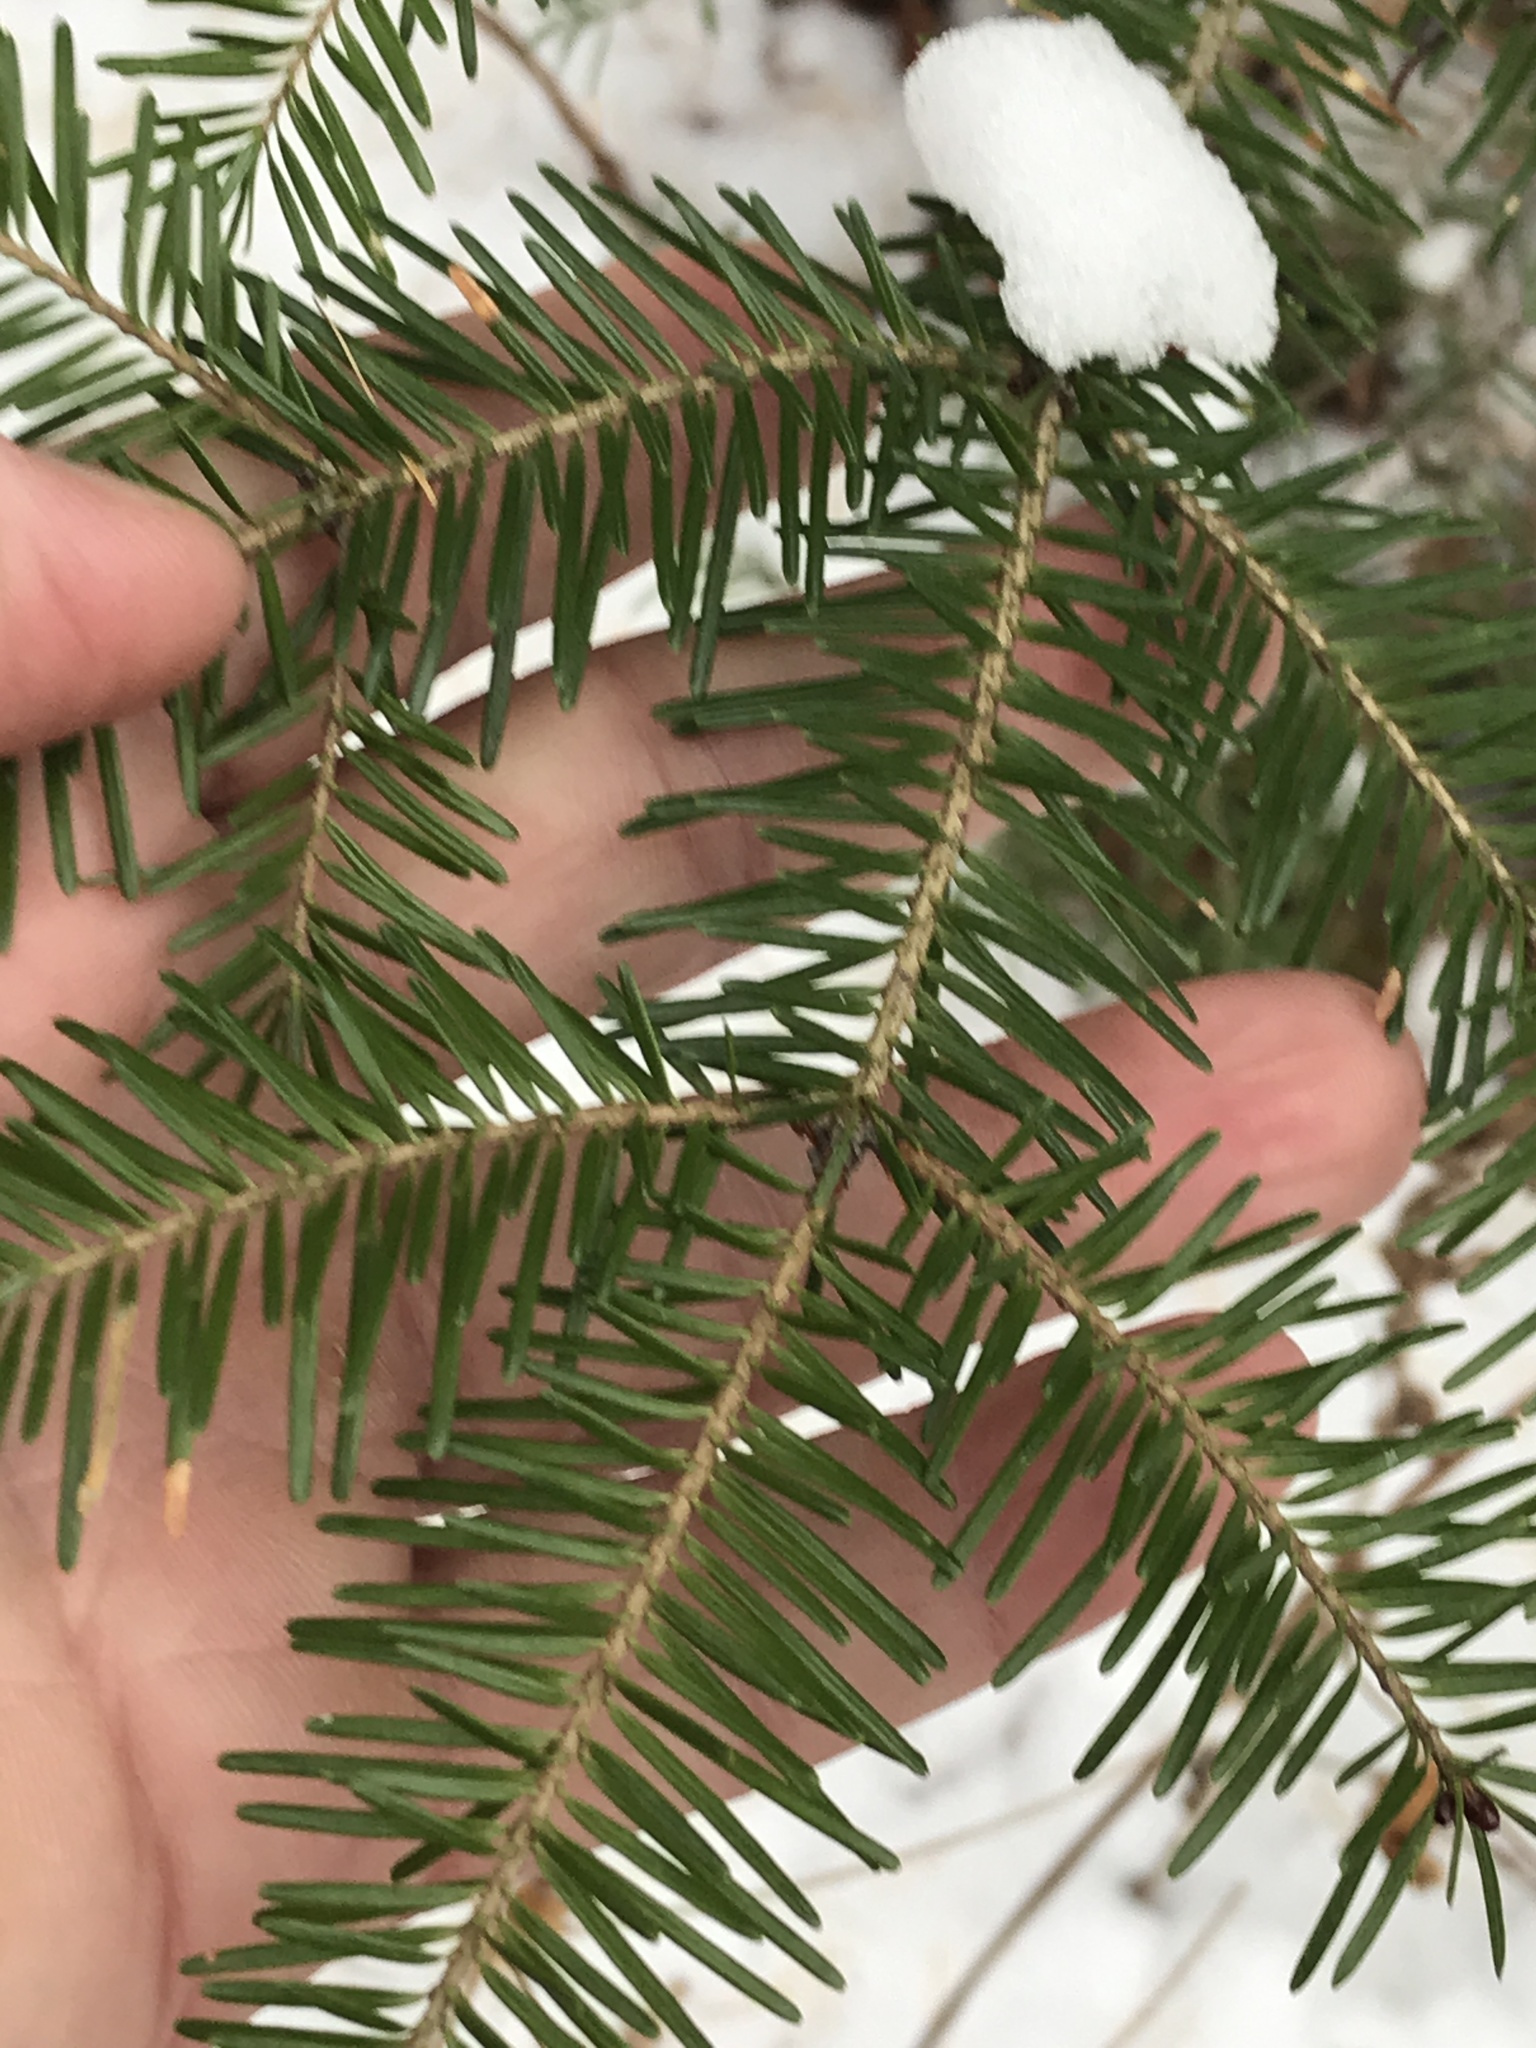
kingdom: Plantae
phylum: Tracheophyta
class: Pinopsida
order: Pinales
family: Pinaceae
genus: Abies
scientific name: Abies balsamea
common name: Balsam fir
